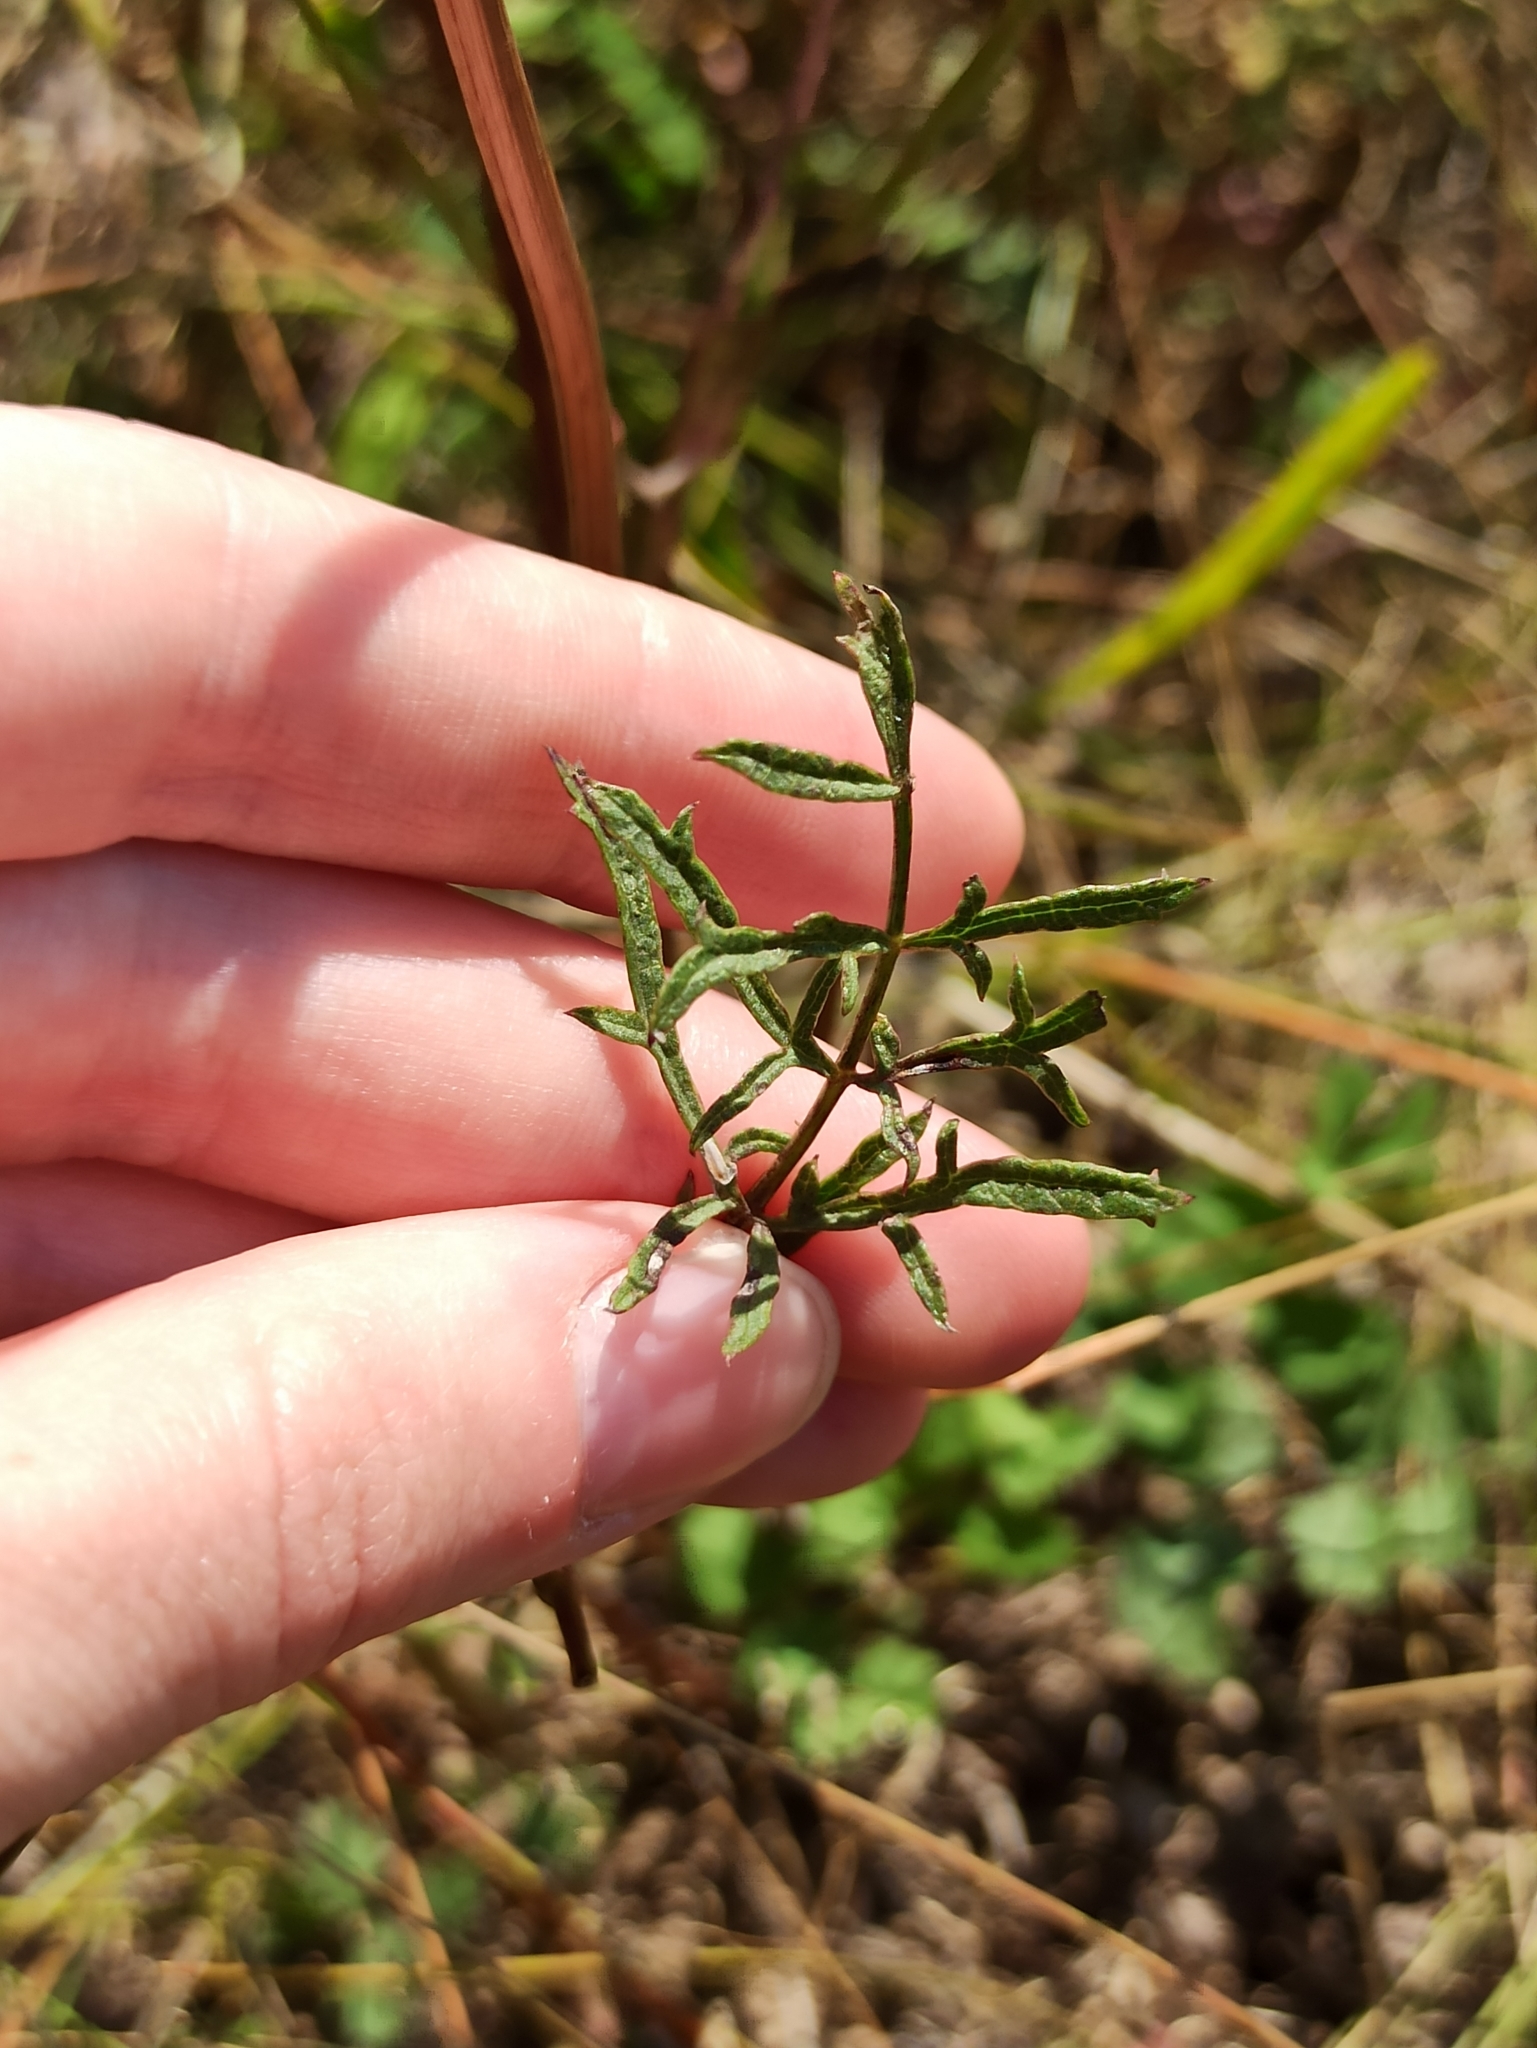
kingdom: Plantae
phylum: Tracheophyta
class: Magnoliopsida
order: Dipsacales
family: Caprifoliaceae
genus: Scabiosa
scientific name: Scabiosa ochroleuca
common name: Cream pincushions
